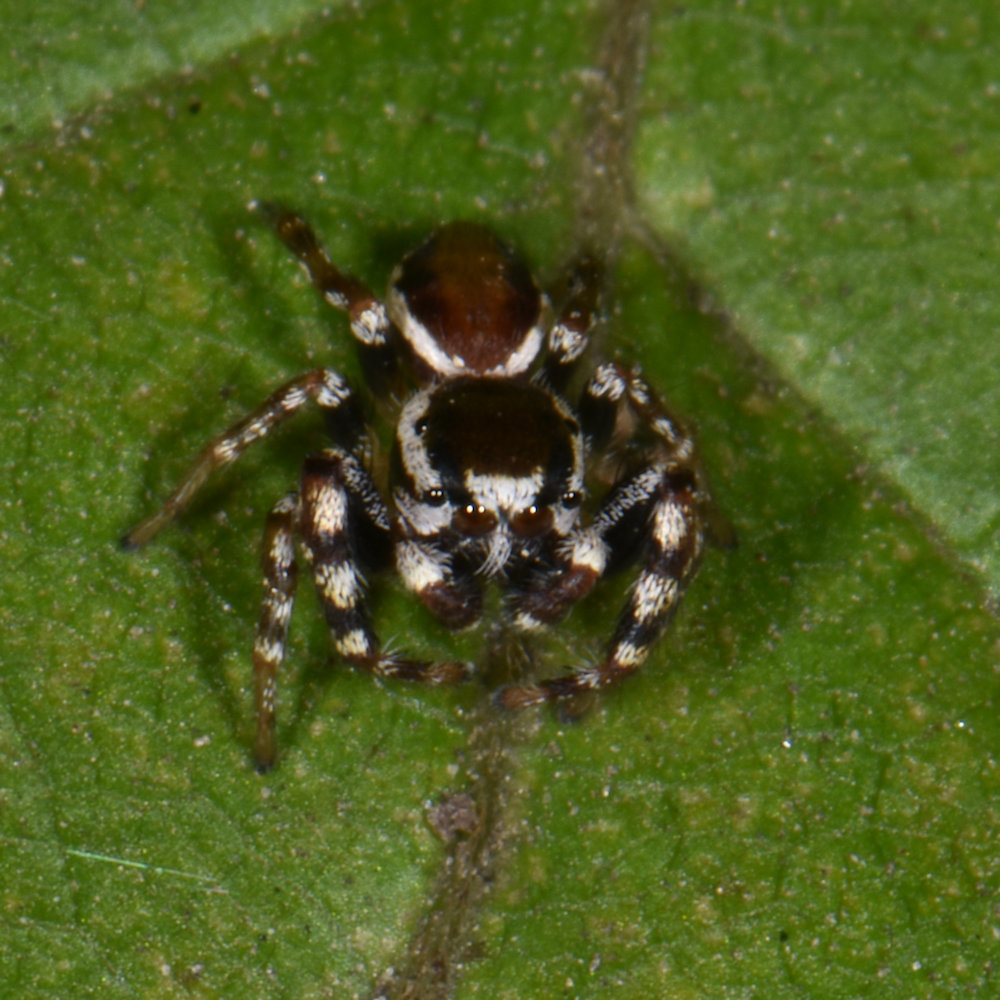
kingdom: Animalia
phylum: Arthropoda
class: Arachnida
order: Araneae
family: Salticidae
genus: Pelegrina
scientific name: Pelegrina proterva
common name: Common white-cheeked jumping spider
